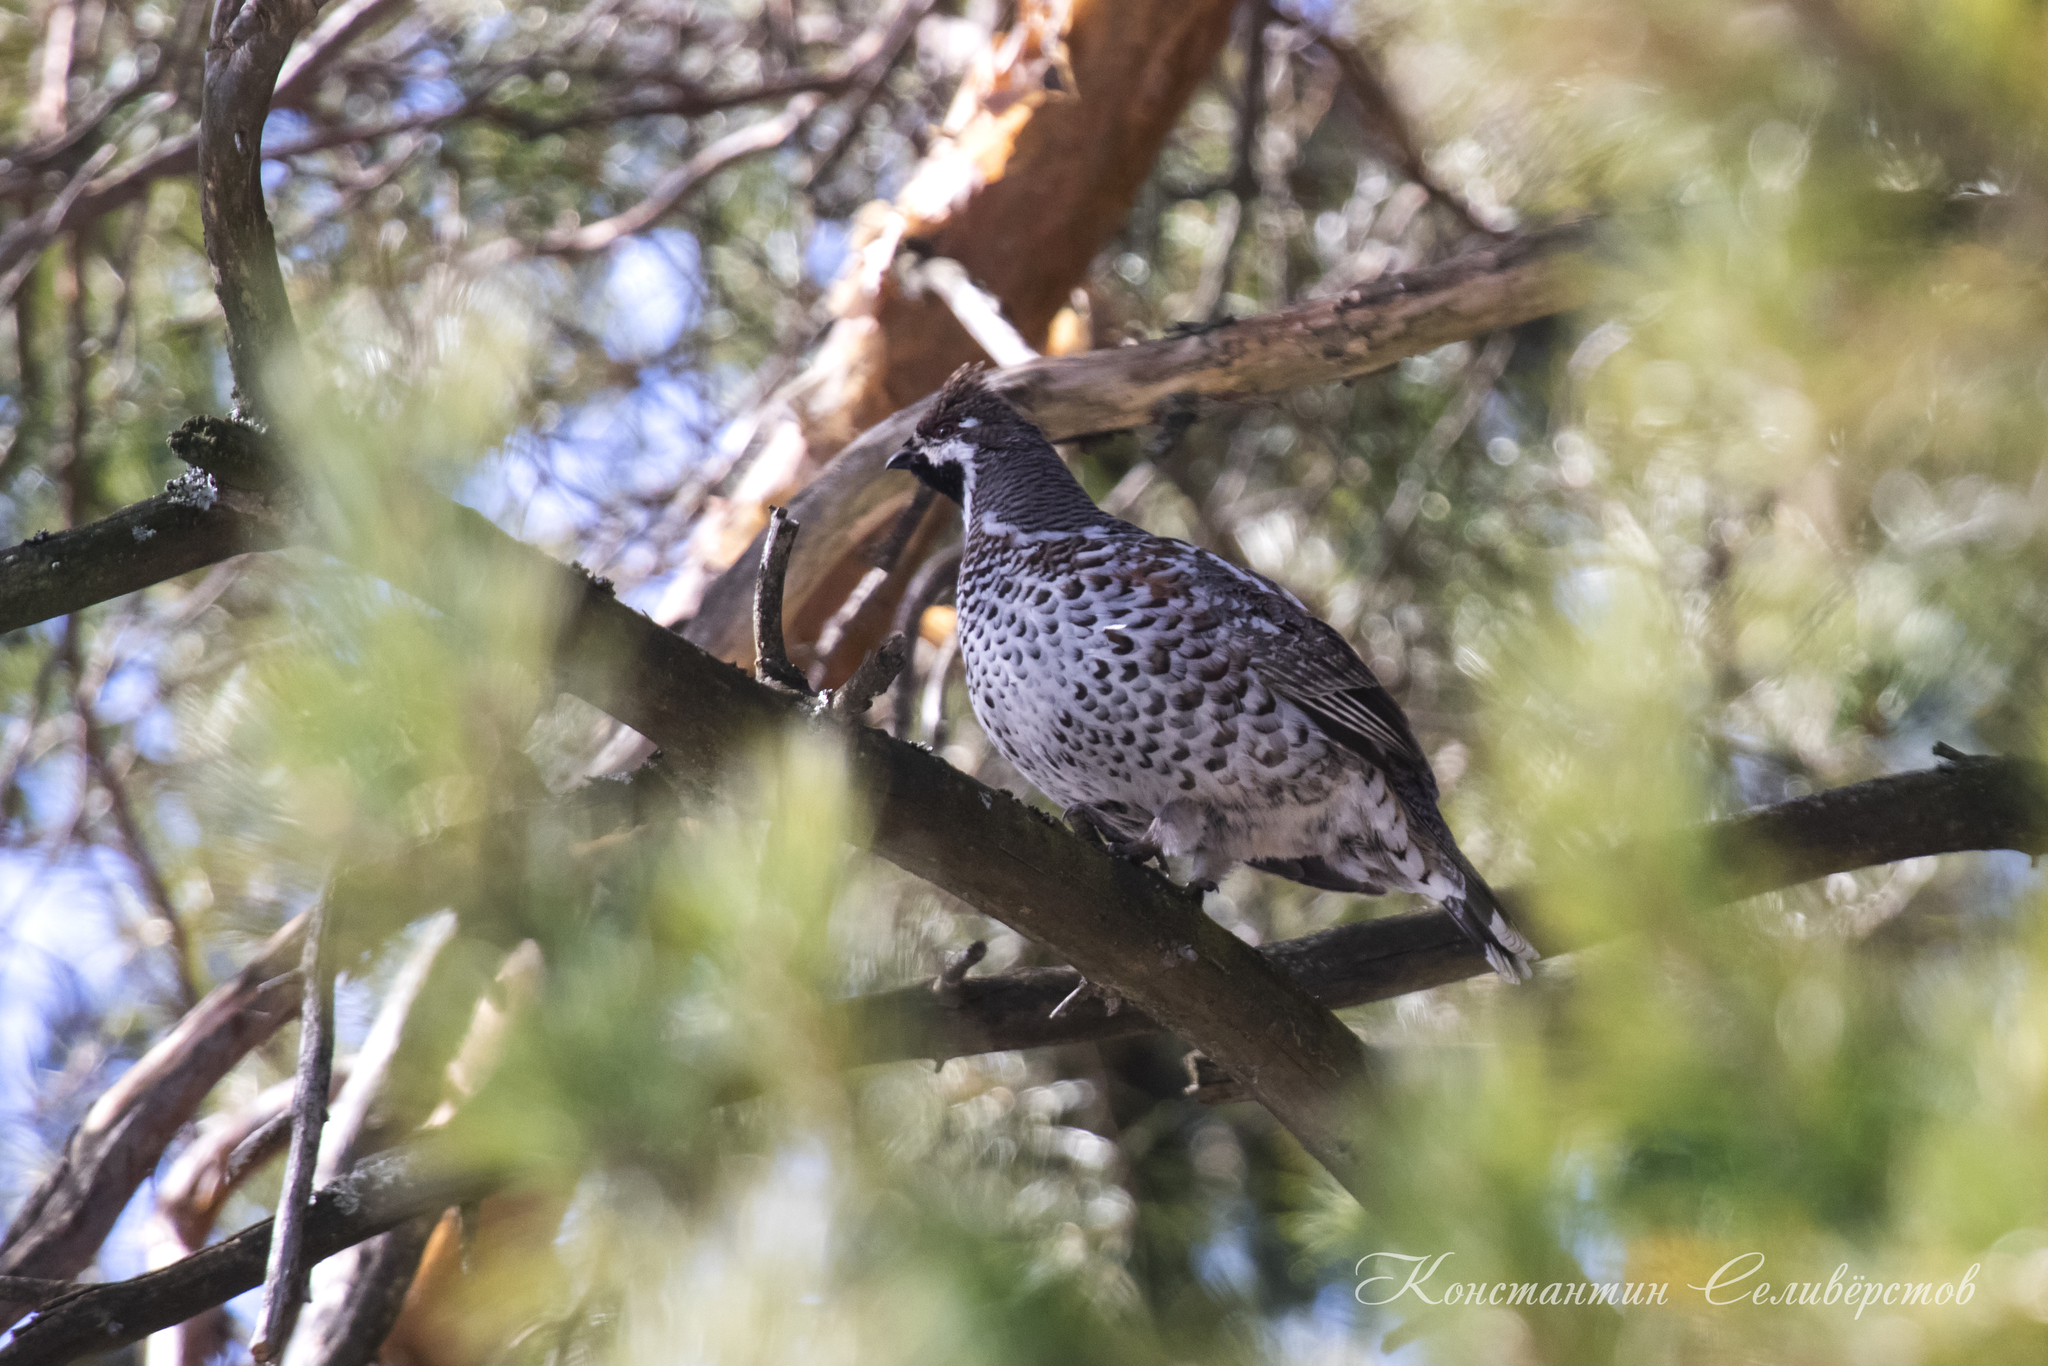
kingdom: Animalia
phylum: Chordata
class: Aves
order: Galliformes
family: Phasianidae
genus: Tetrastes
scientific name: Tetrastes bonasia
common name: Hazel grouse
